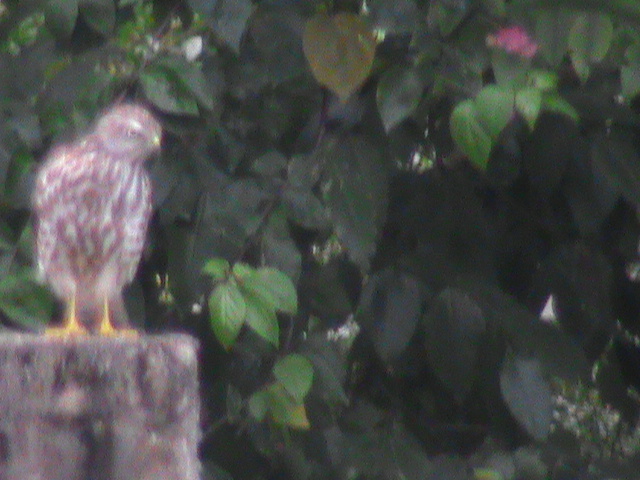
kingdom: Animalia
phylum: Chordata
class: Aves
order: Accipitriformes
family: Accipitridae
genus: Accipiter
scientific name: Accipiter badius
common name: Shikra
